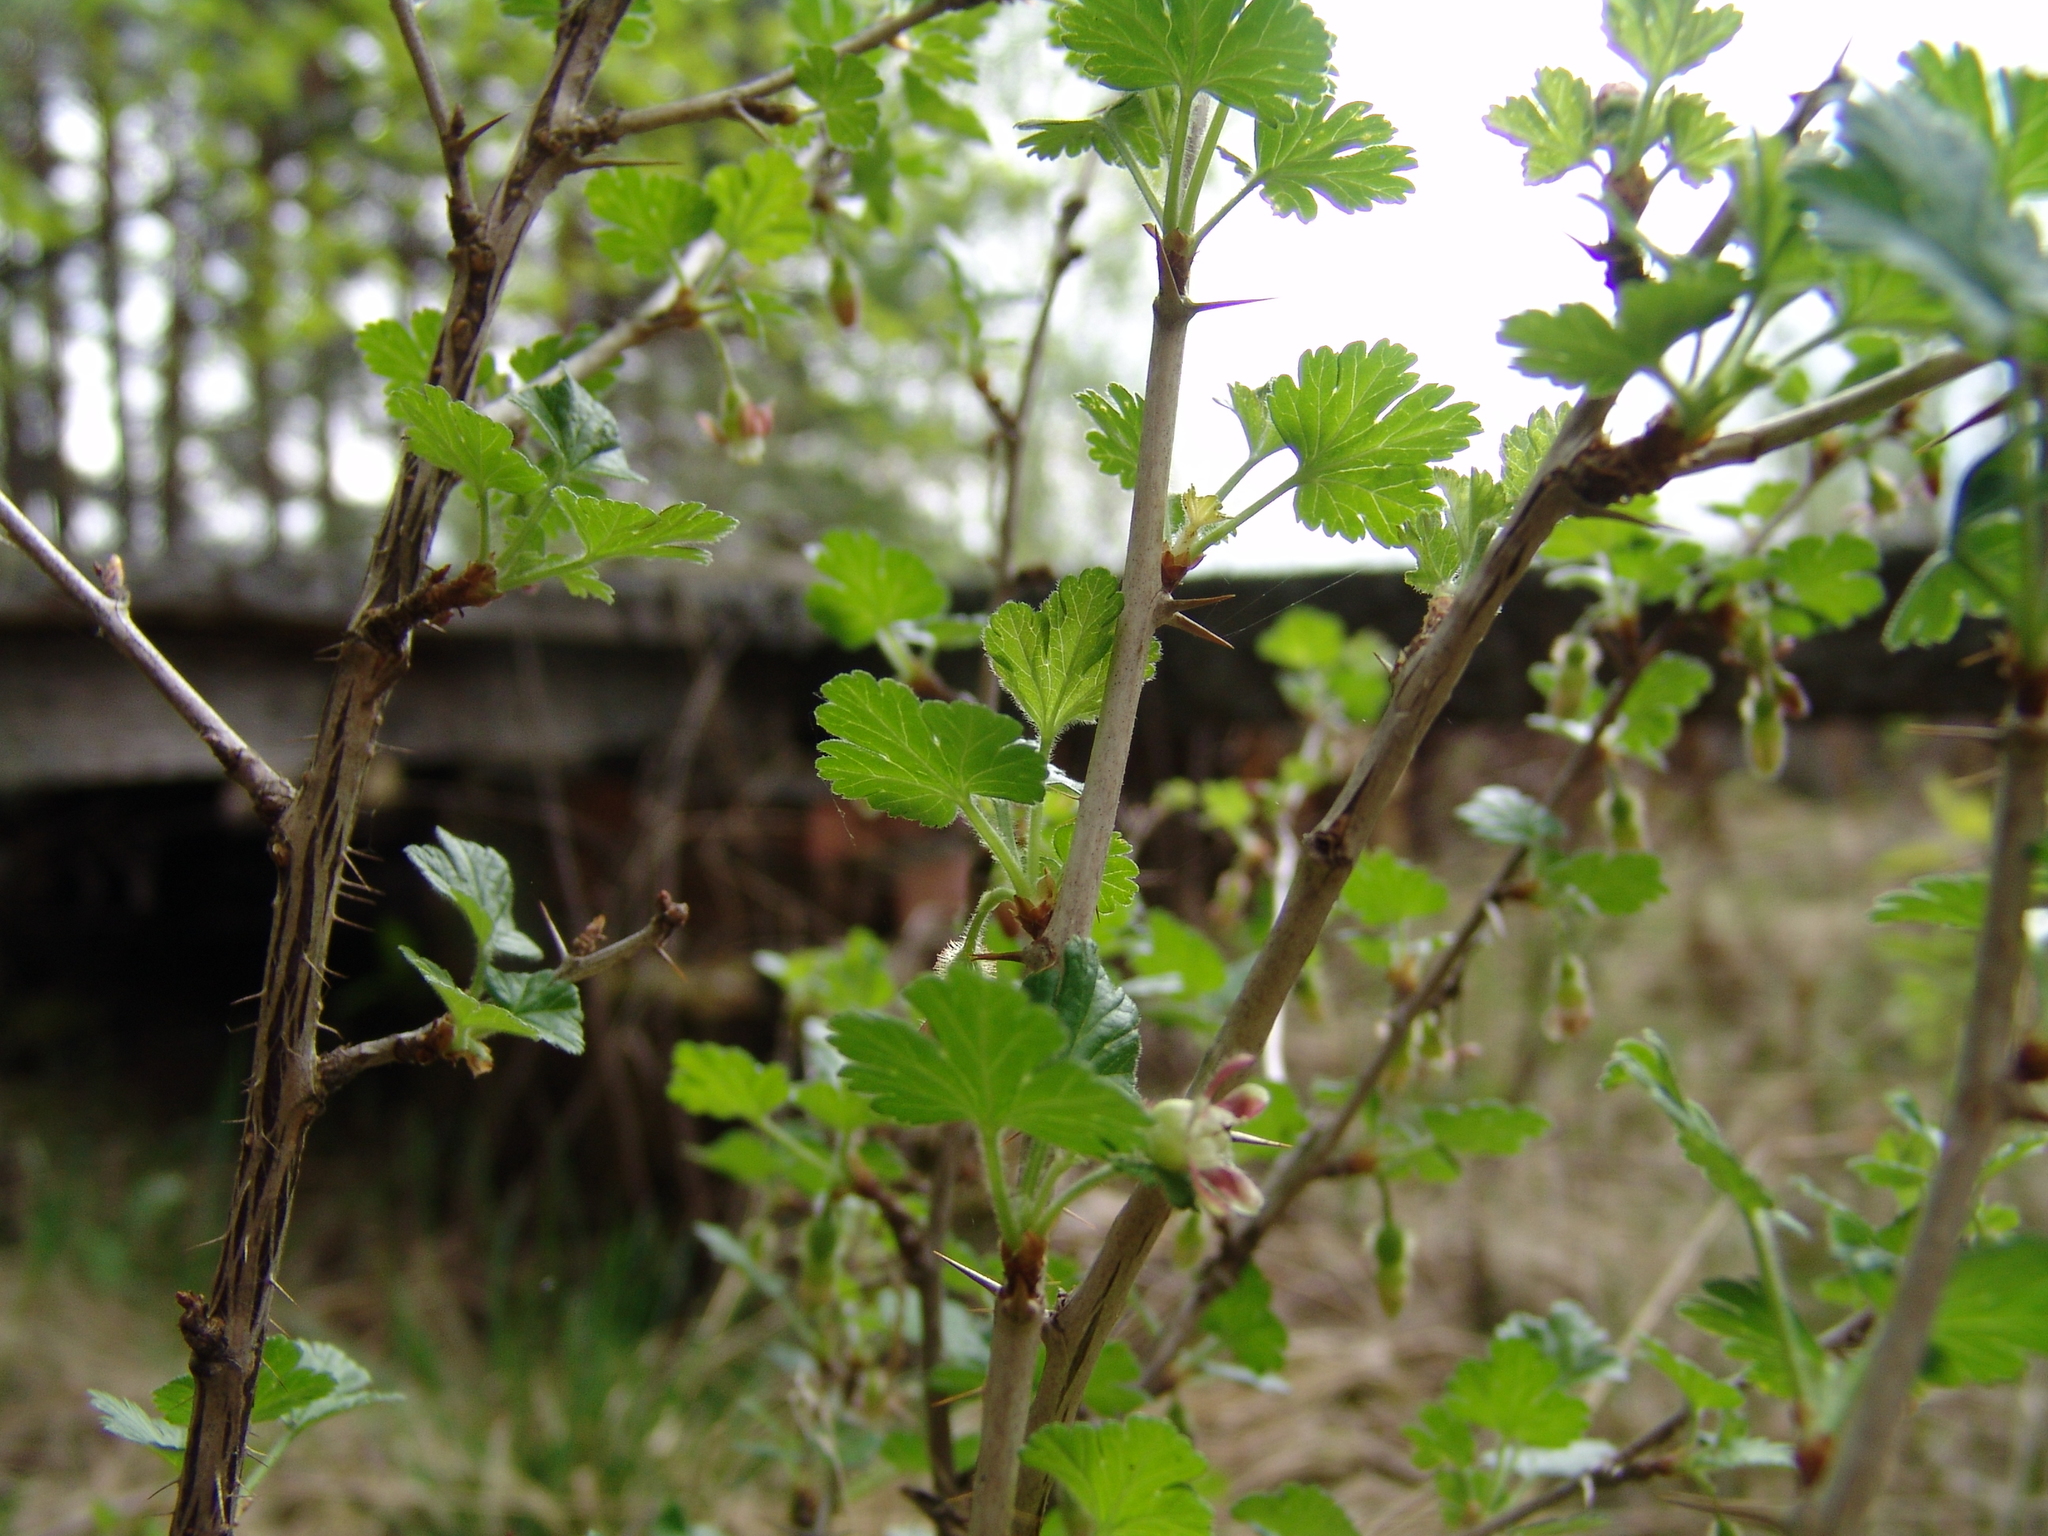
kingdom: Plantae
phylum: Tracheophyta
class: Magnoliopsida
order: Saxifragales
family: Grossulariaceae
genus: Ribes
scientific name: Ribes uva-crispa
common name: Gooseberry
